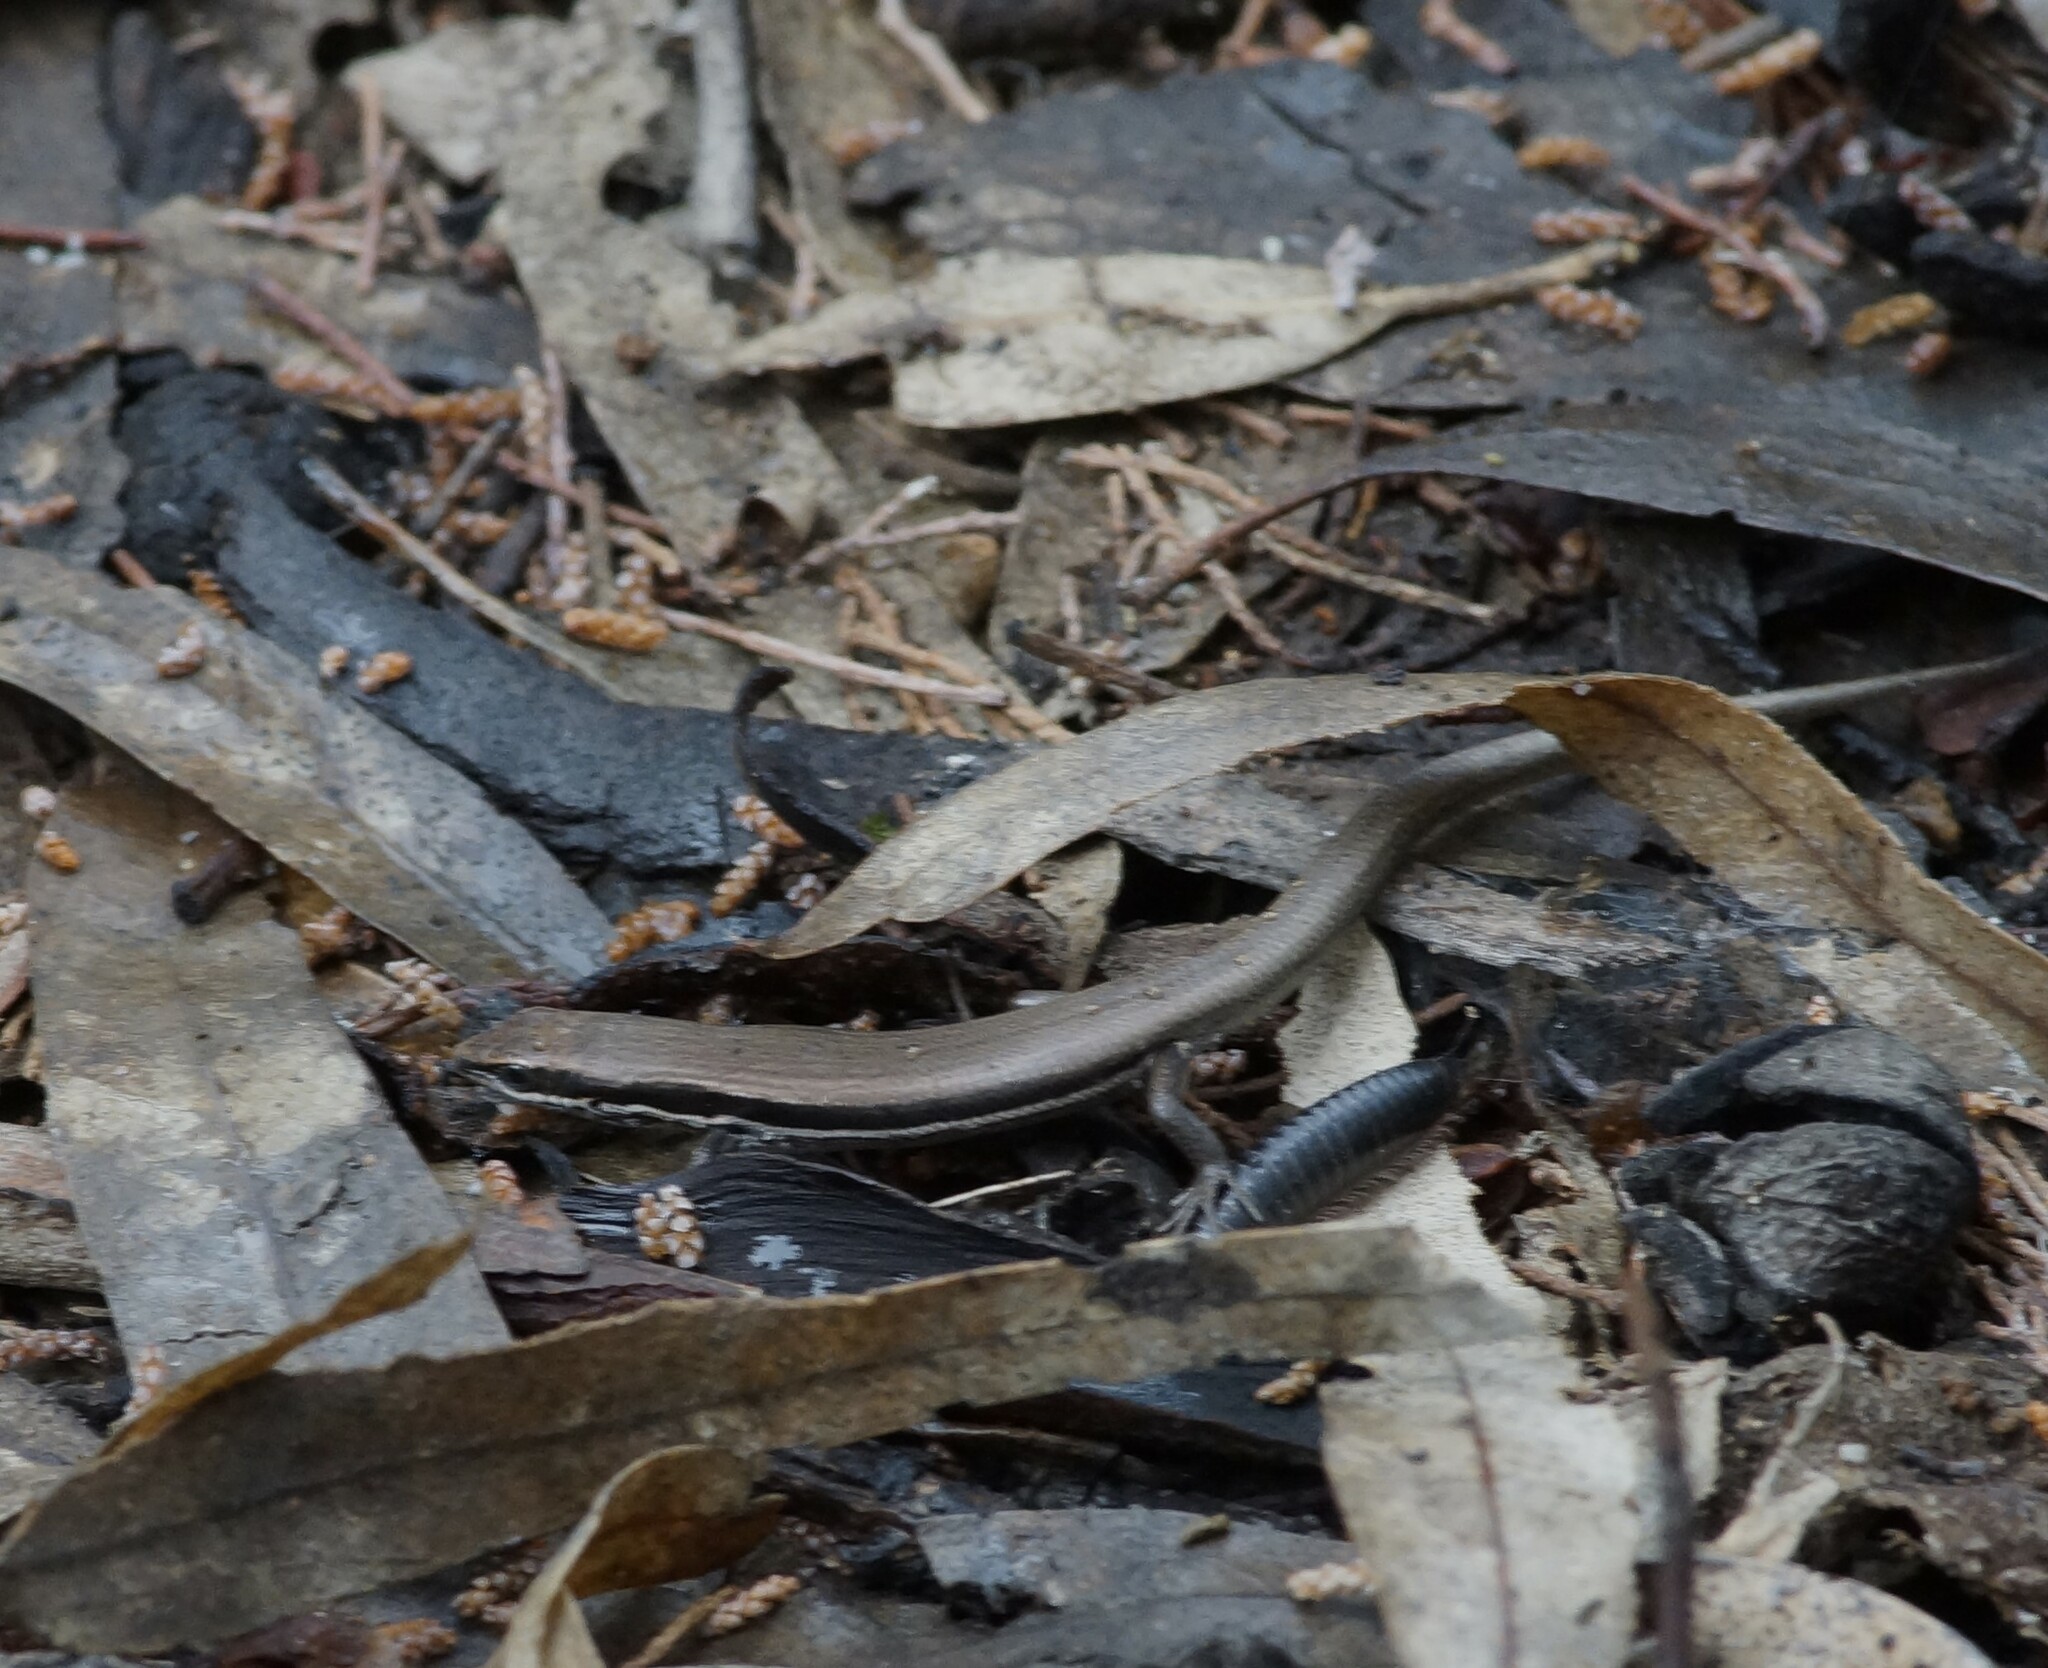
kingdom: Animalia
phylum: Chordata
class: Squamata
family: Scincidae
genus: Morethia
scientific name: Morethia boulengeri
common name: South-eastern morethia skink
